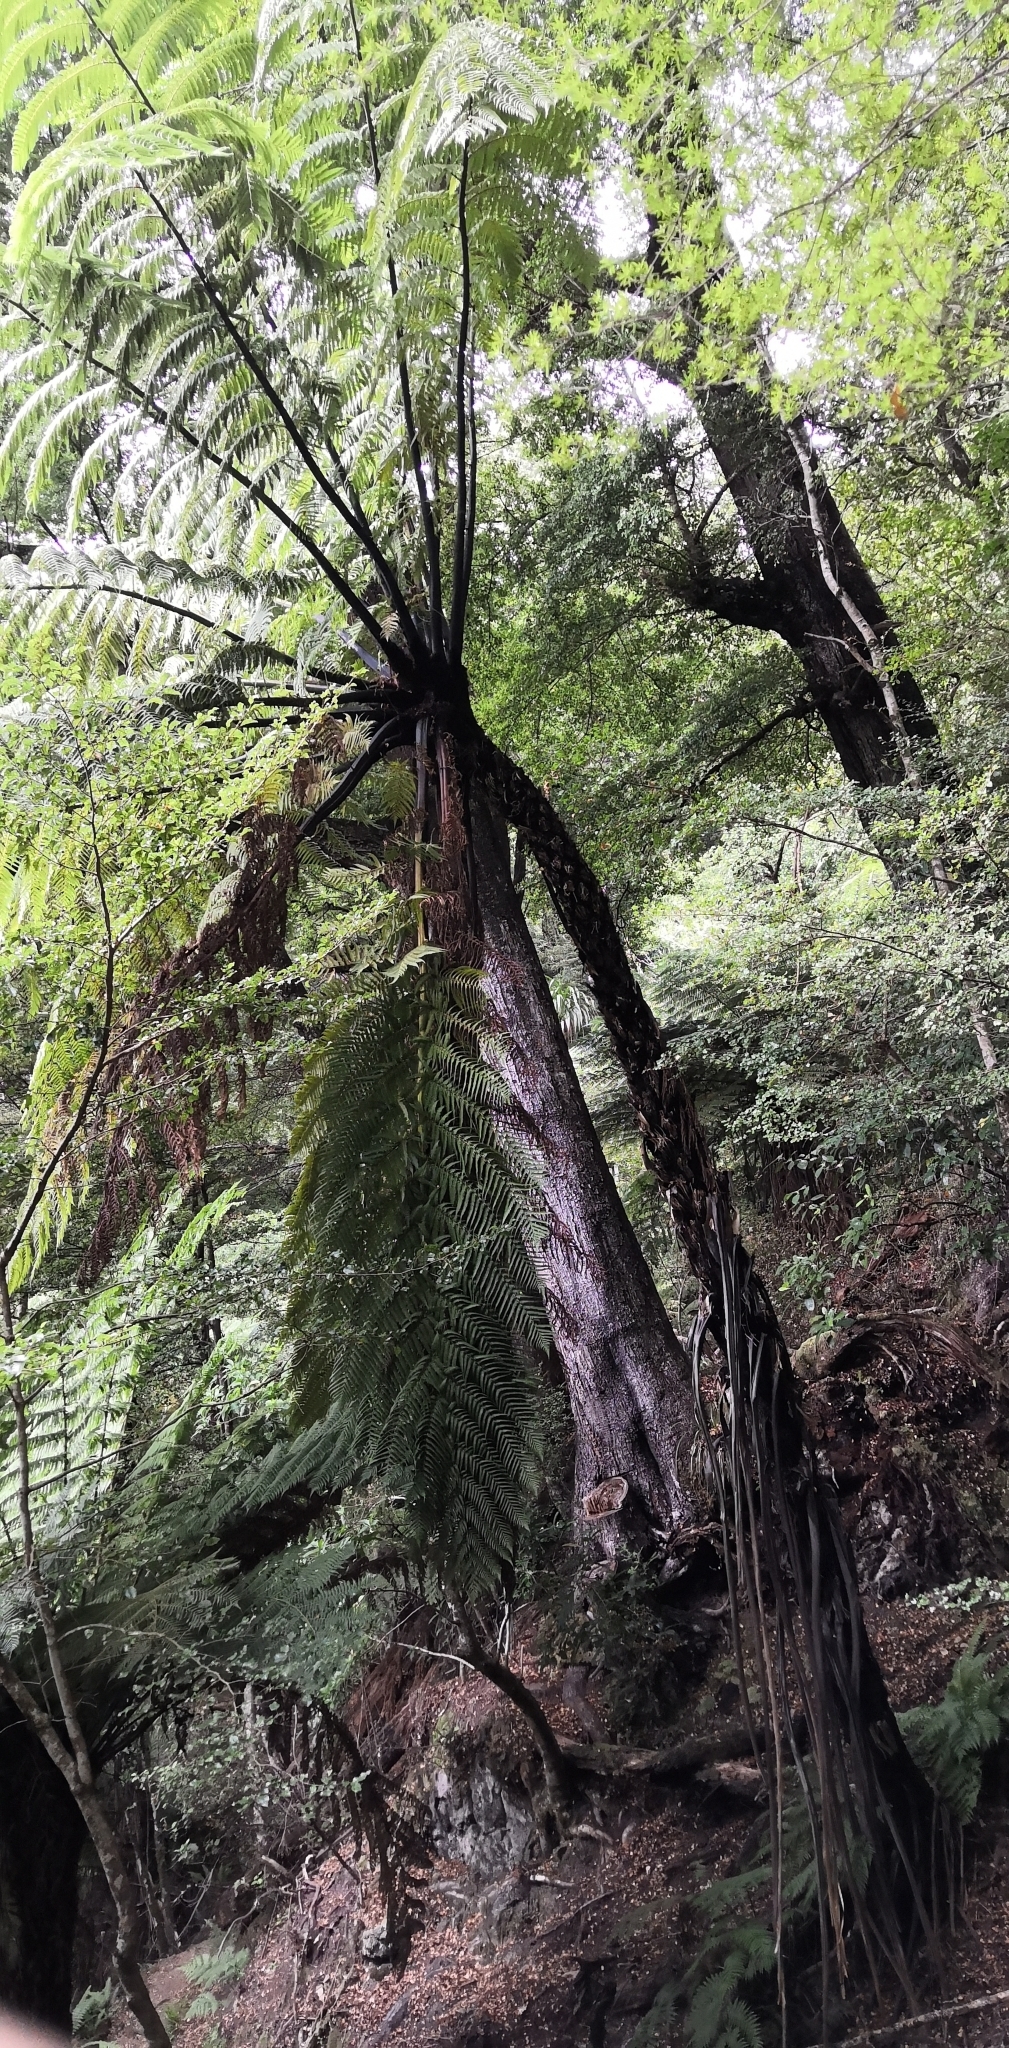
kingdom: Plantae
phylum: Tracheophyta
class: Polypodiopsida
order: Cyatheales
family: Cyatheaceae
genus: Sphaeropteris
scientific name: Sphaeropteris medullaris
